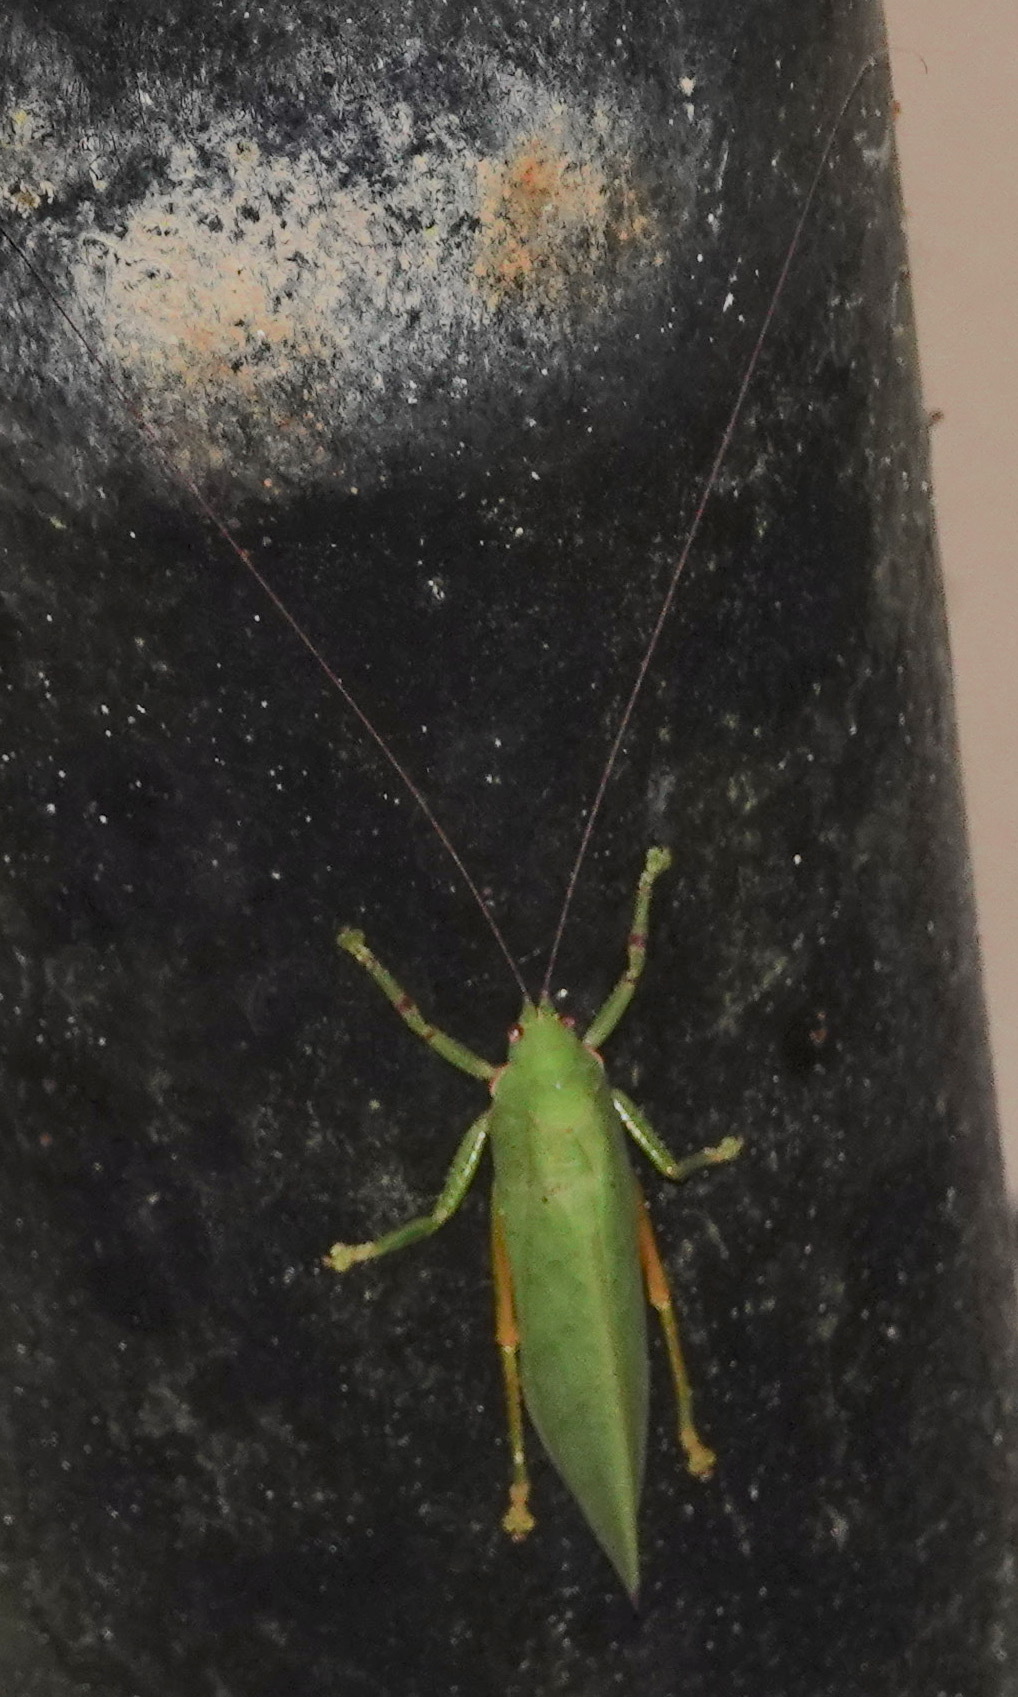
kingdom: Animalia
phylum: Arthropoda
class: Insecta
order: Orthoptera
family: Tettigoniidae
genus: Rhomboptera
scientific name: Rhomboptera semilunata
